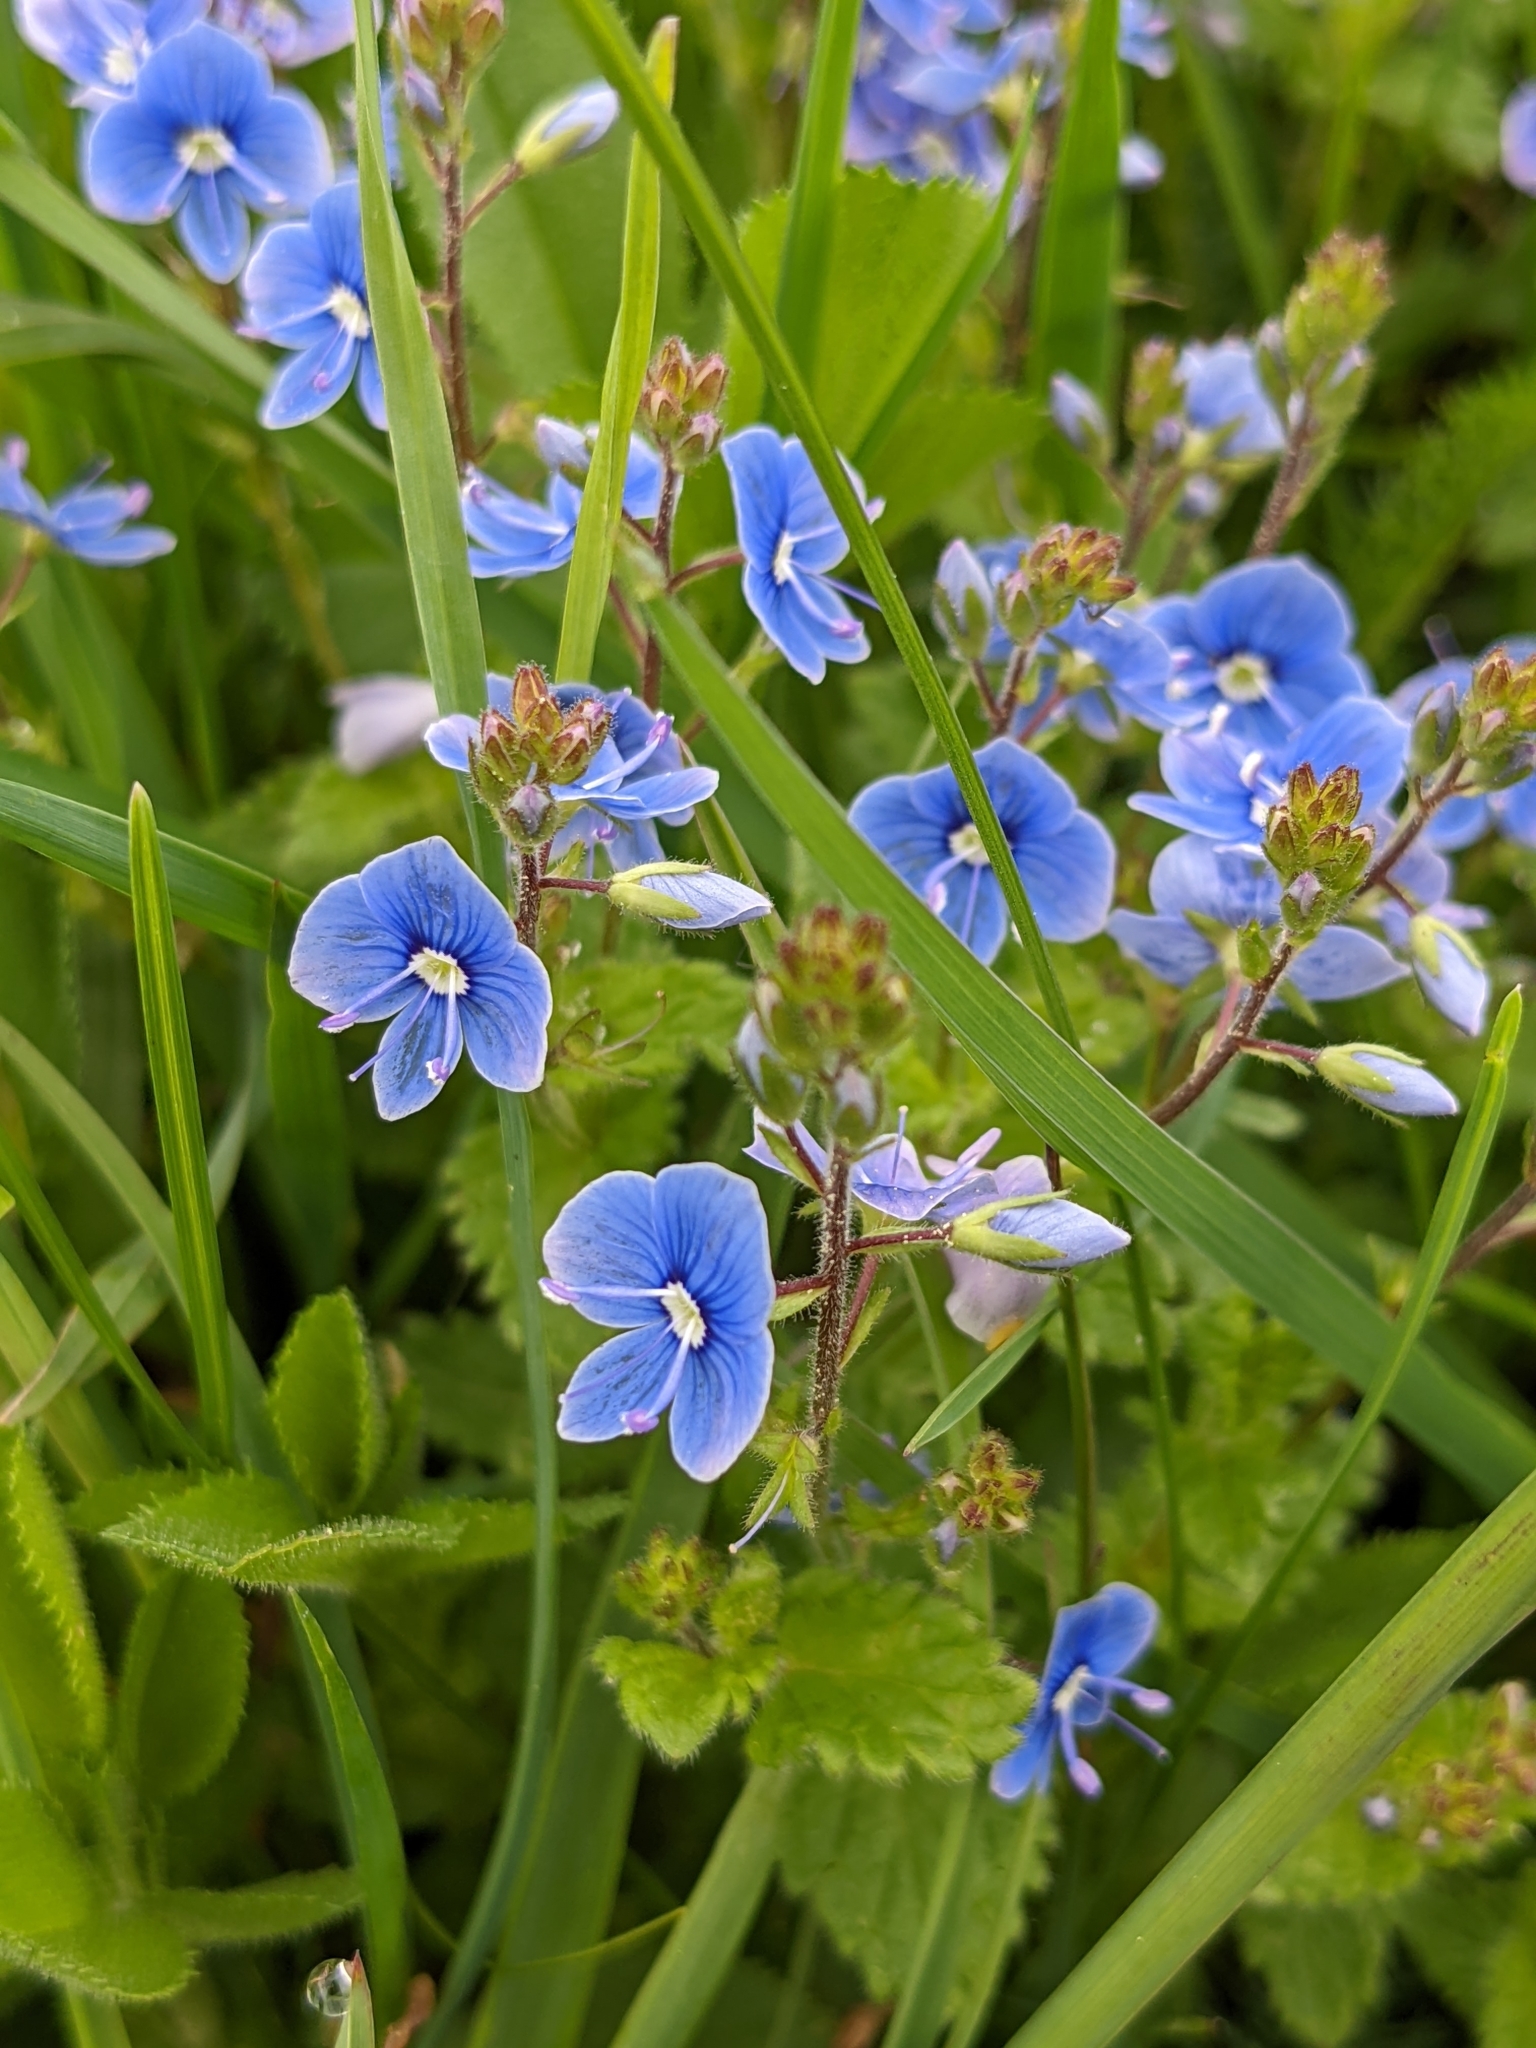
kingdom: Plantae
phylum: Tracheophyta
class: Magnoliopsida
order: Lamiales
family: Plantaginaceae
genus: Veronica
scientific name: Veronica chamaedrys
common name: Germander speedwell
